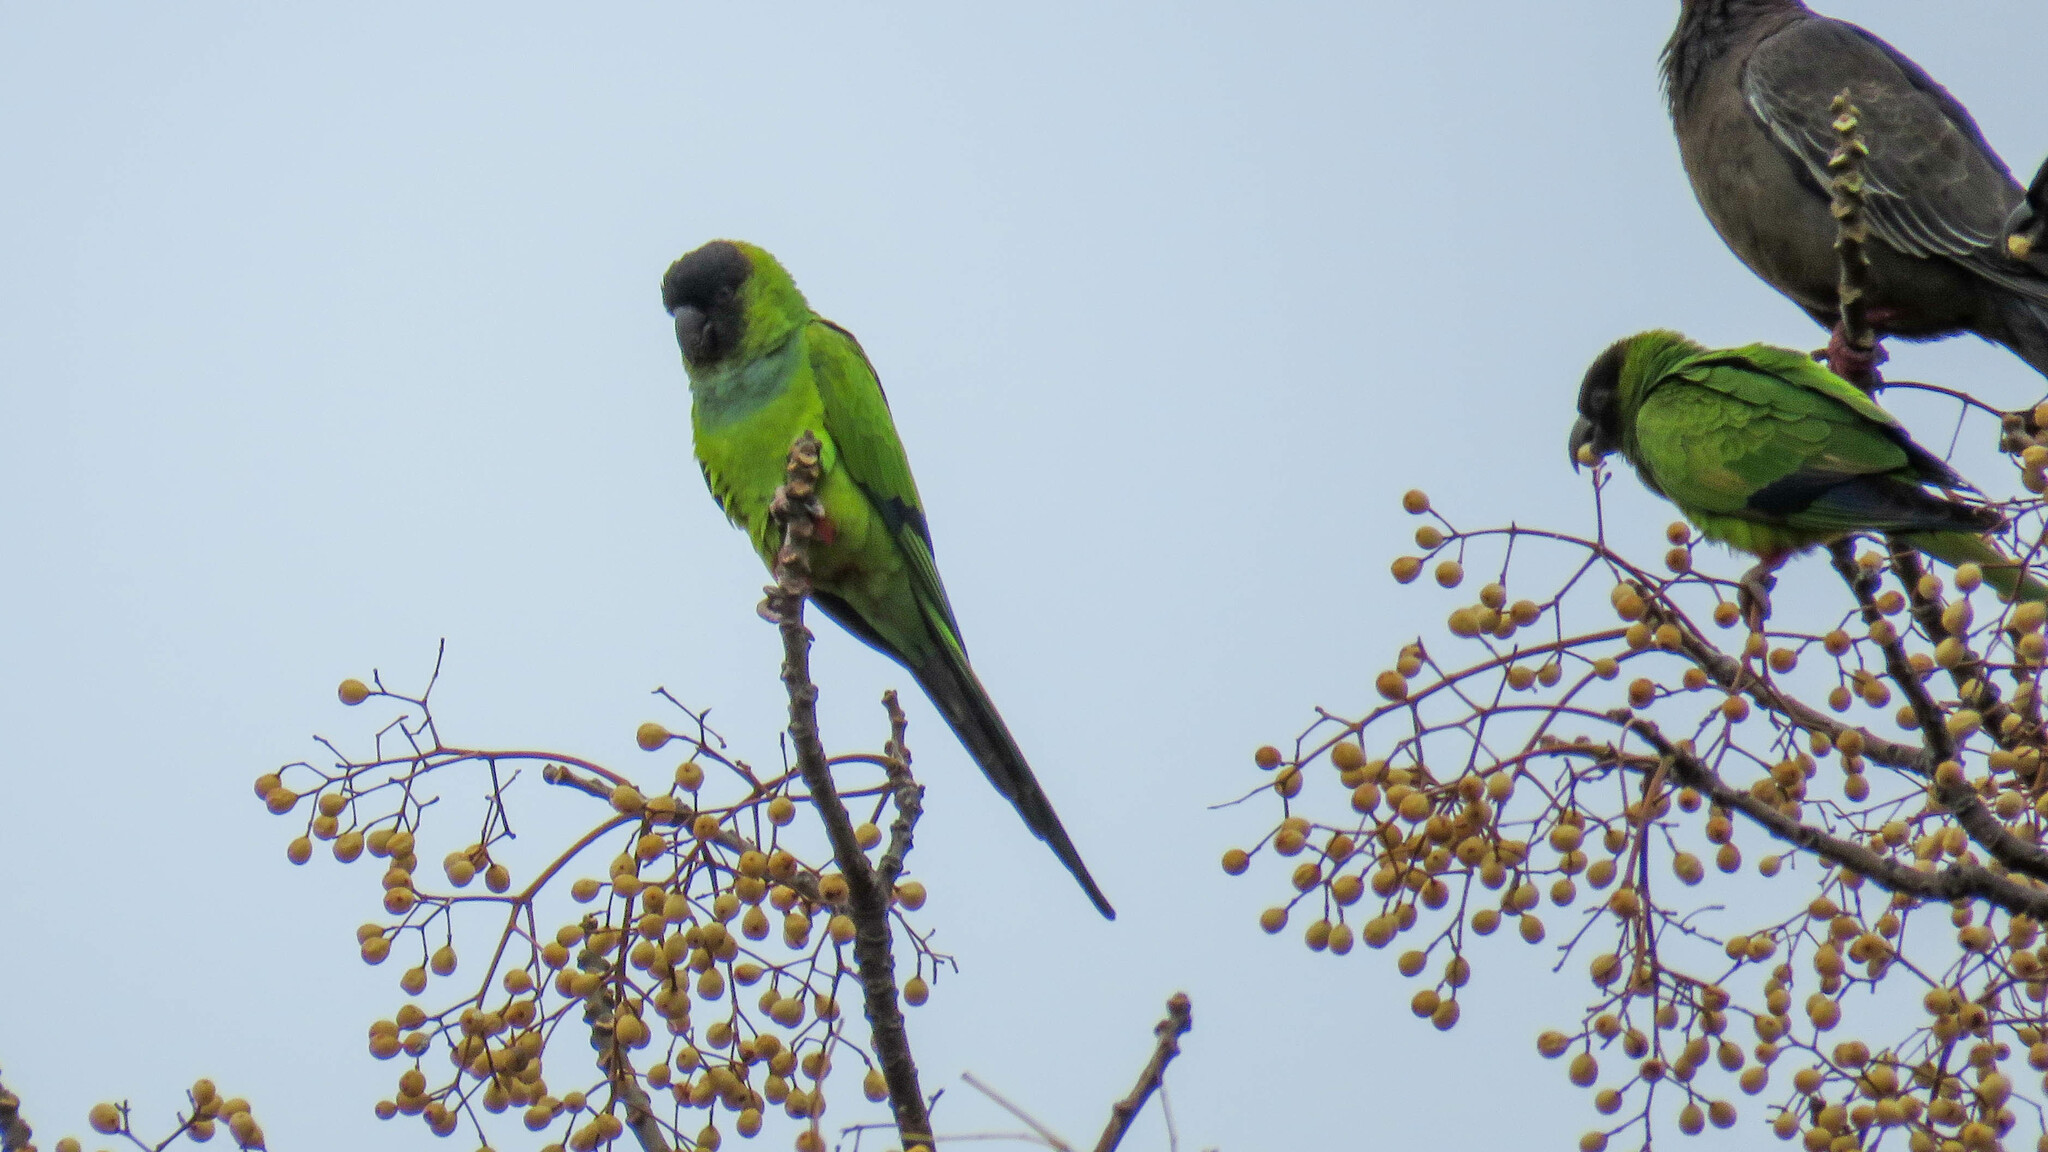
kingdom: Animalia
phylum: Chordata
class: Aves
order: Psittaciformes
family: Psittacidae
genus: Nandayus
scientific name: Nandayus nenday
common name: Nanday parakeet
